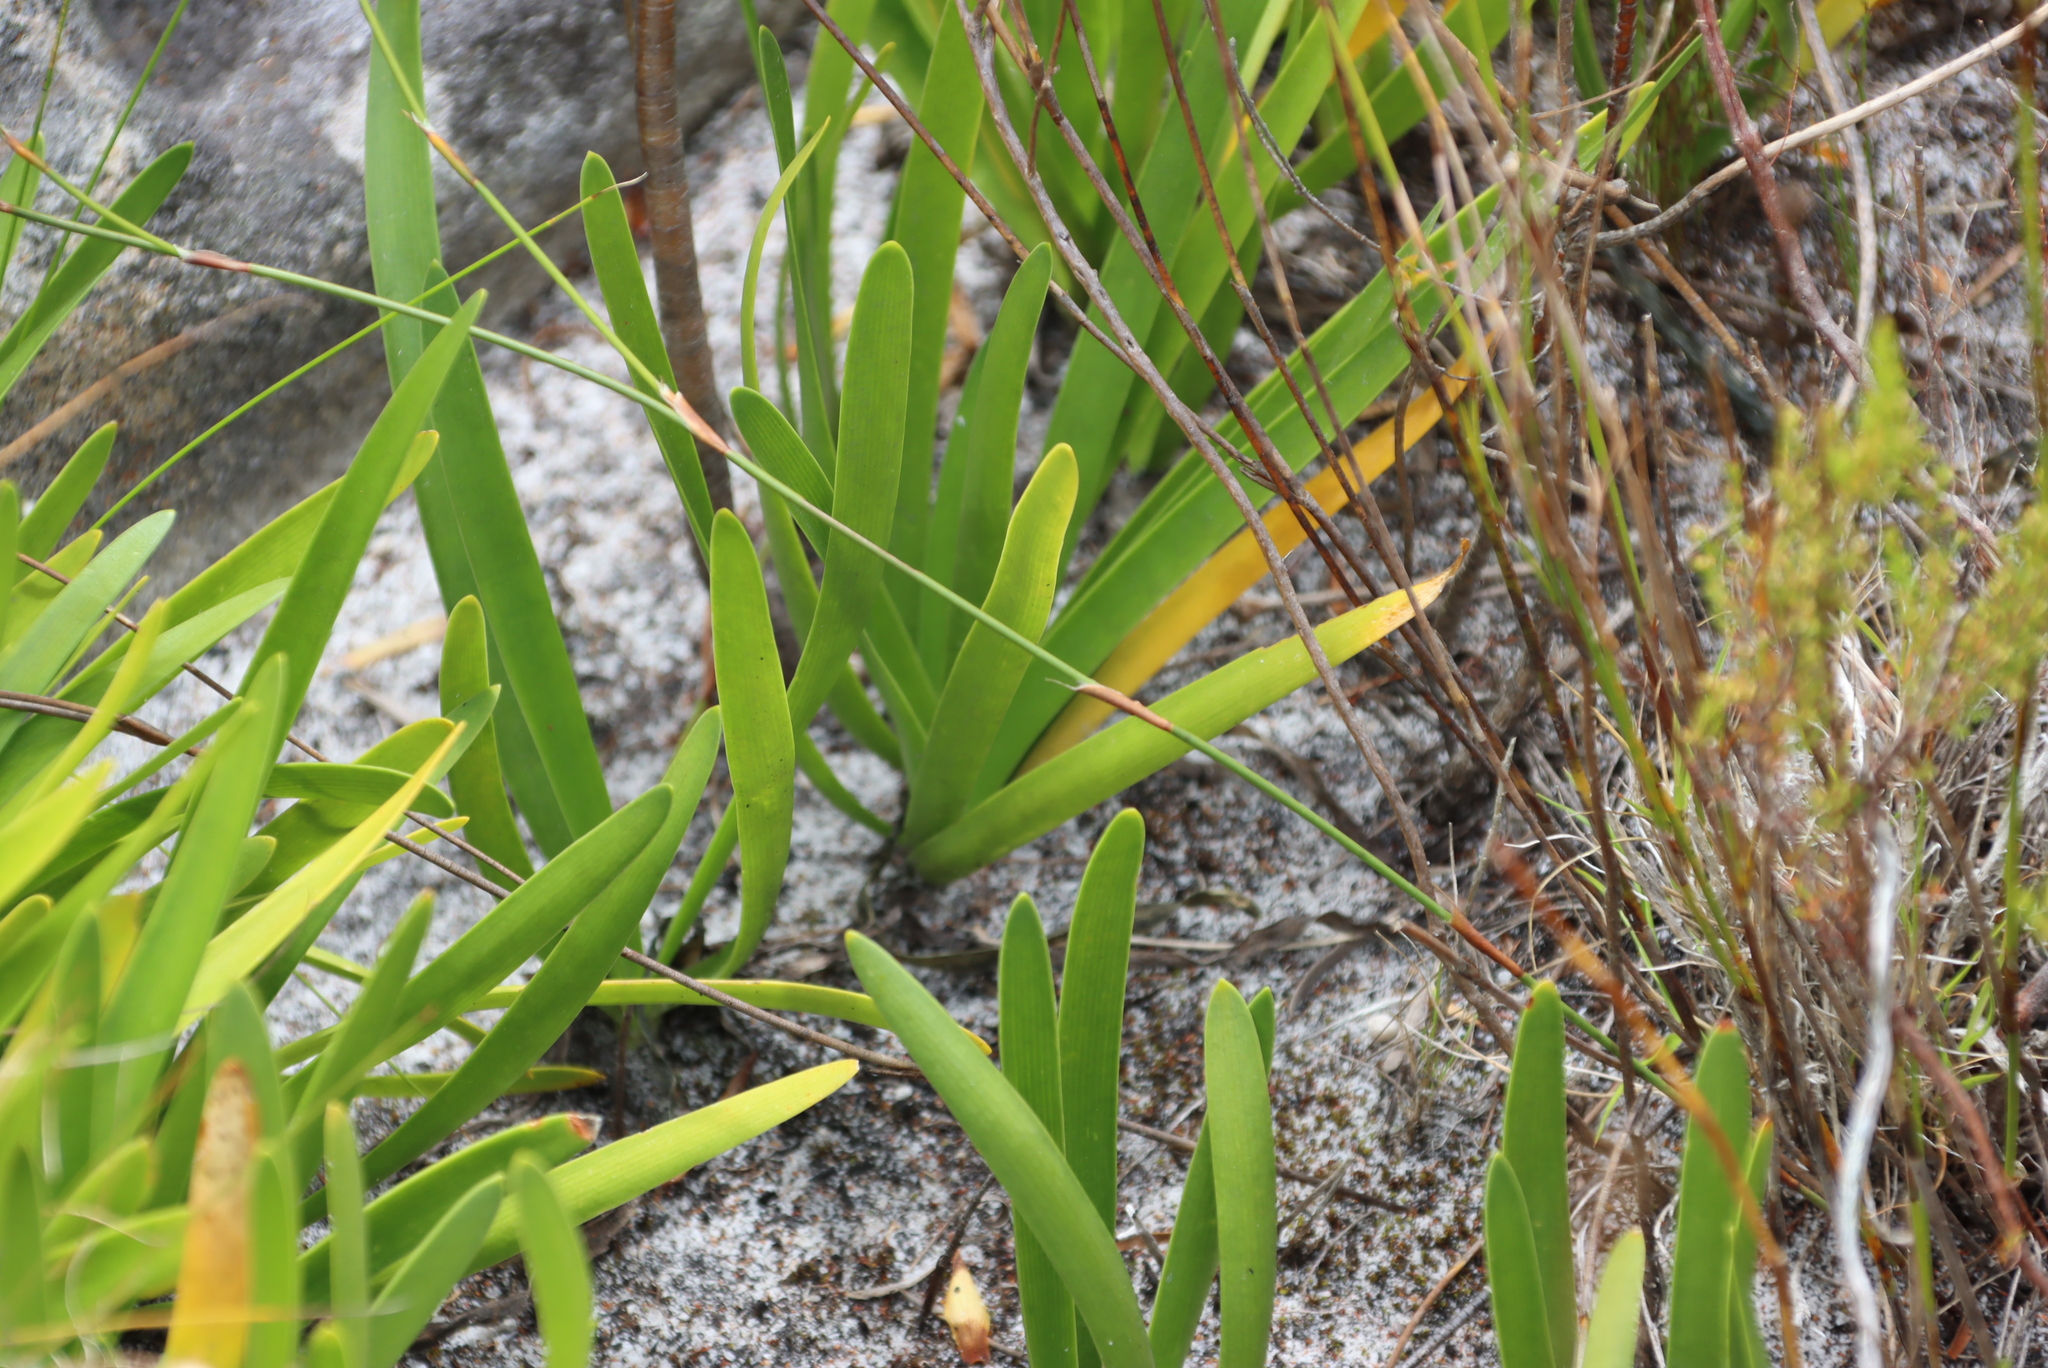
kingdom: Plantae
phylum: Tracheophyta
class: Liliopsida
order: Asparagales
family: Amaryllidaceae
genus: Agapanthus
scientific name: Agapanthus africanus
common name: Lily-of-the-nile
